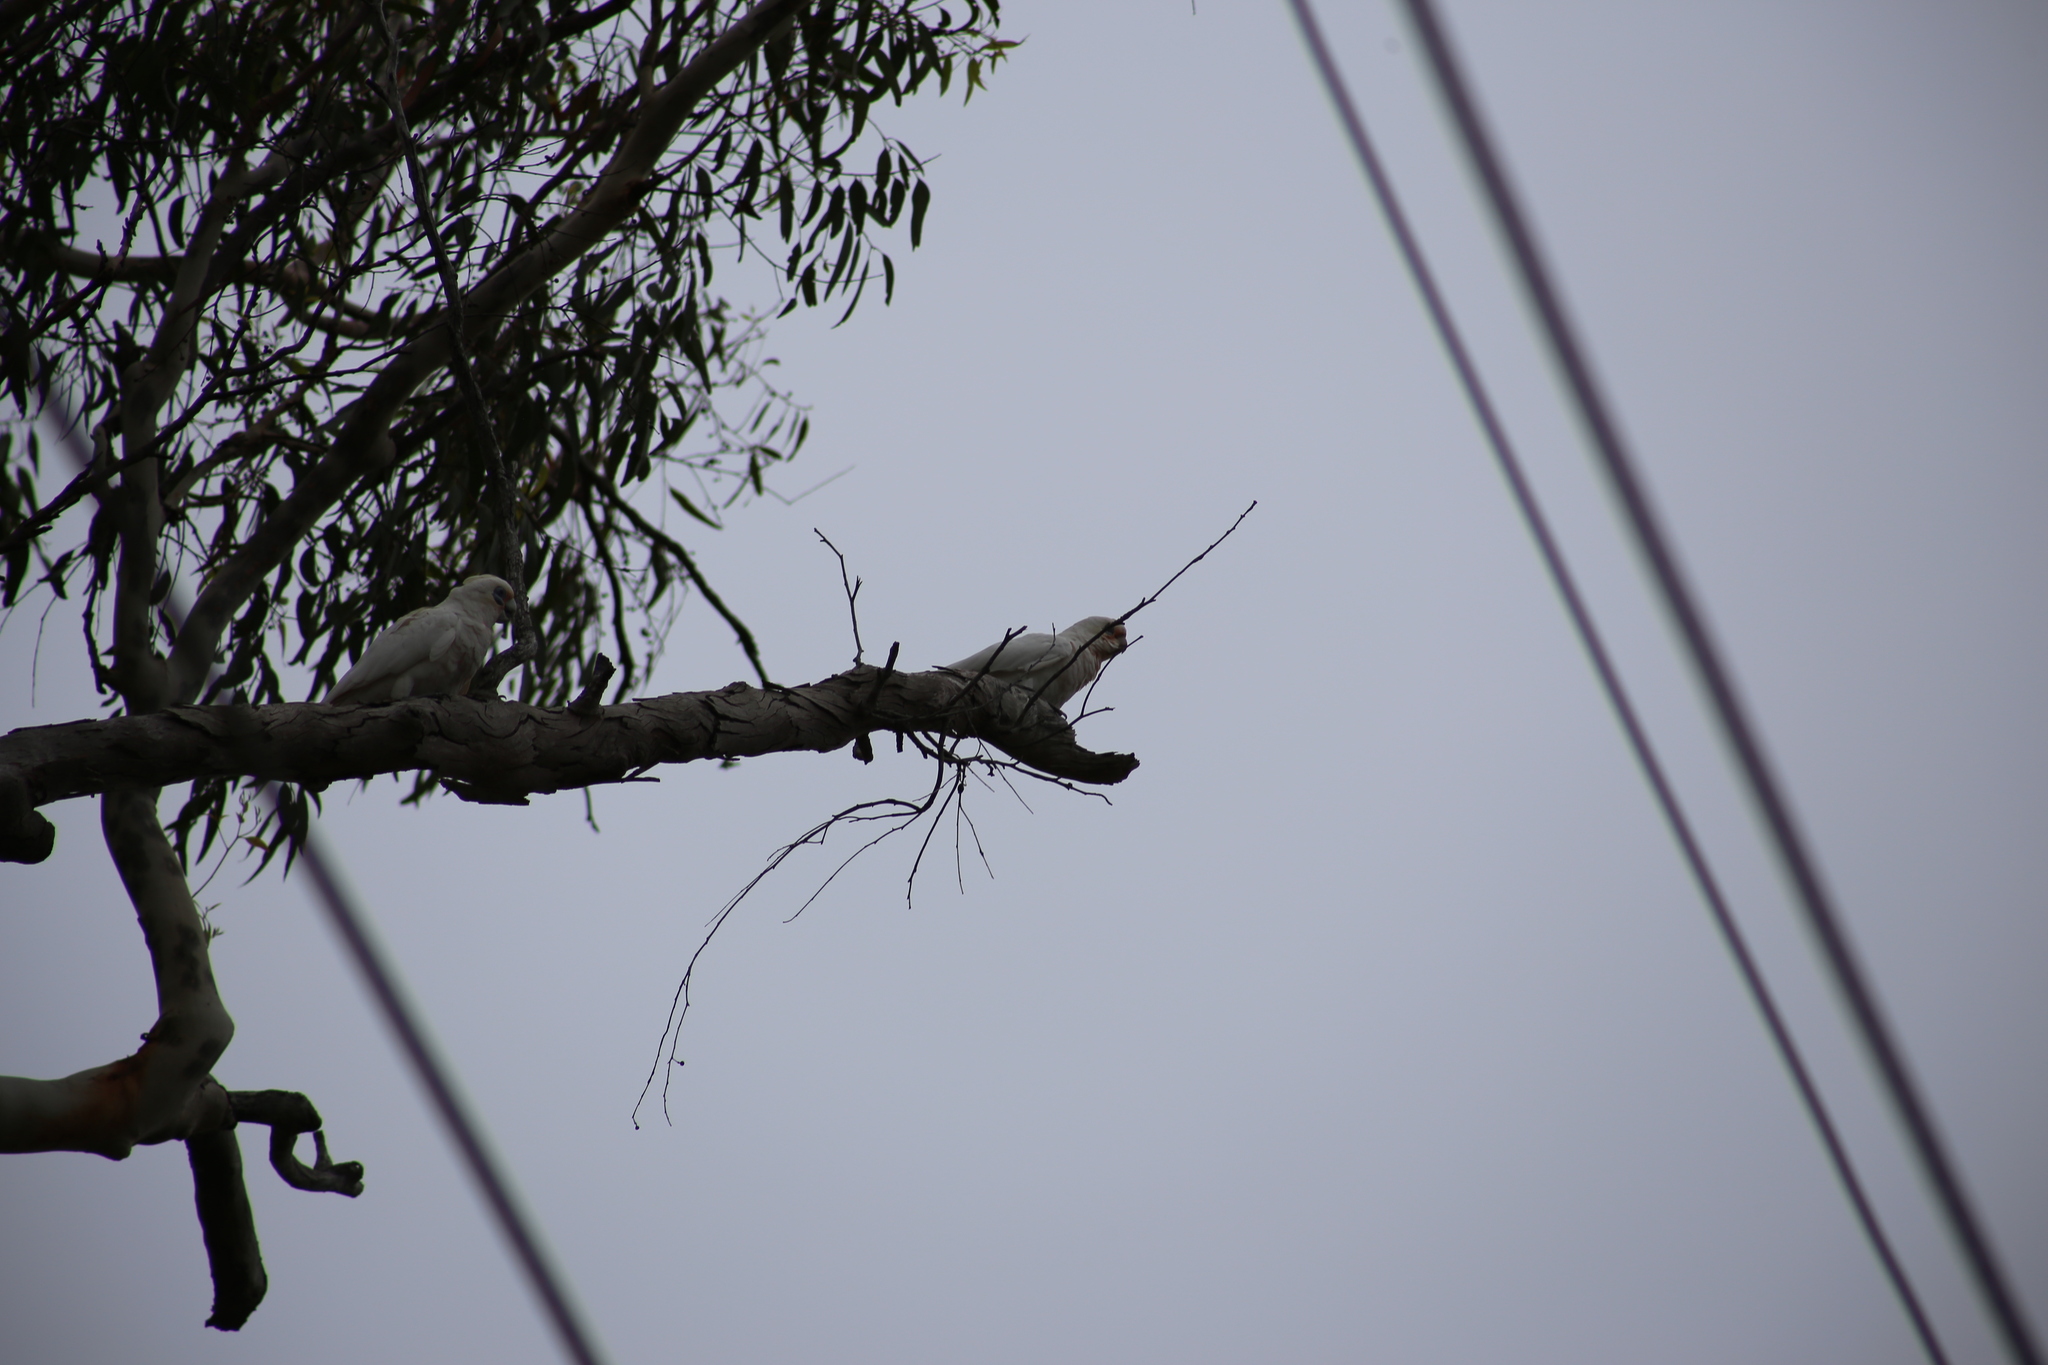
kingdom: Animalia
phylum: Chordata
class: Aves
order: Psittaciformes
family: Psittacidae
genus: Cacatua
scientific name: Cacatua sanguinea
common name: Little corella
